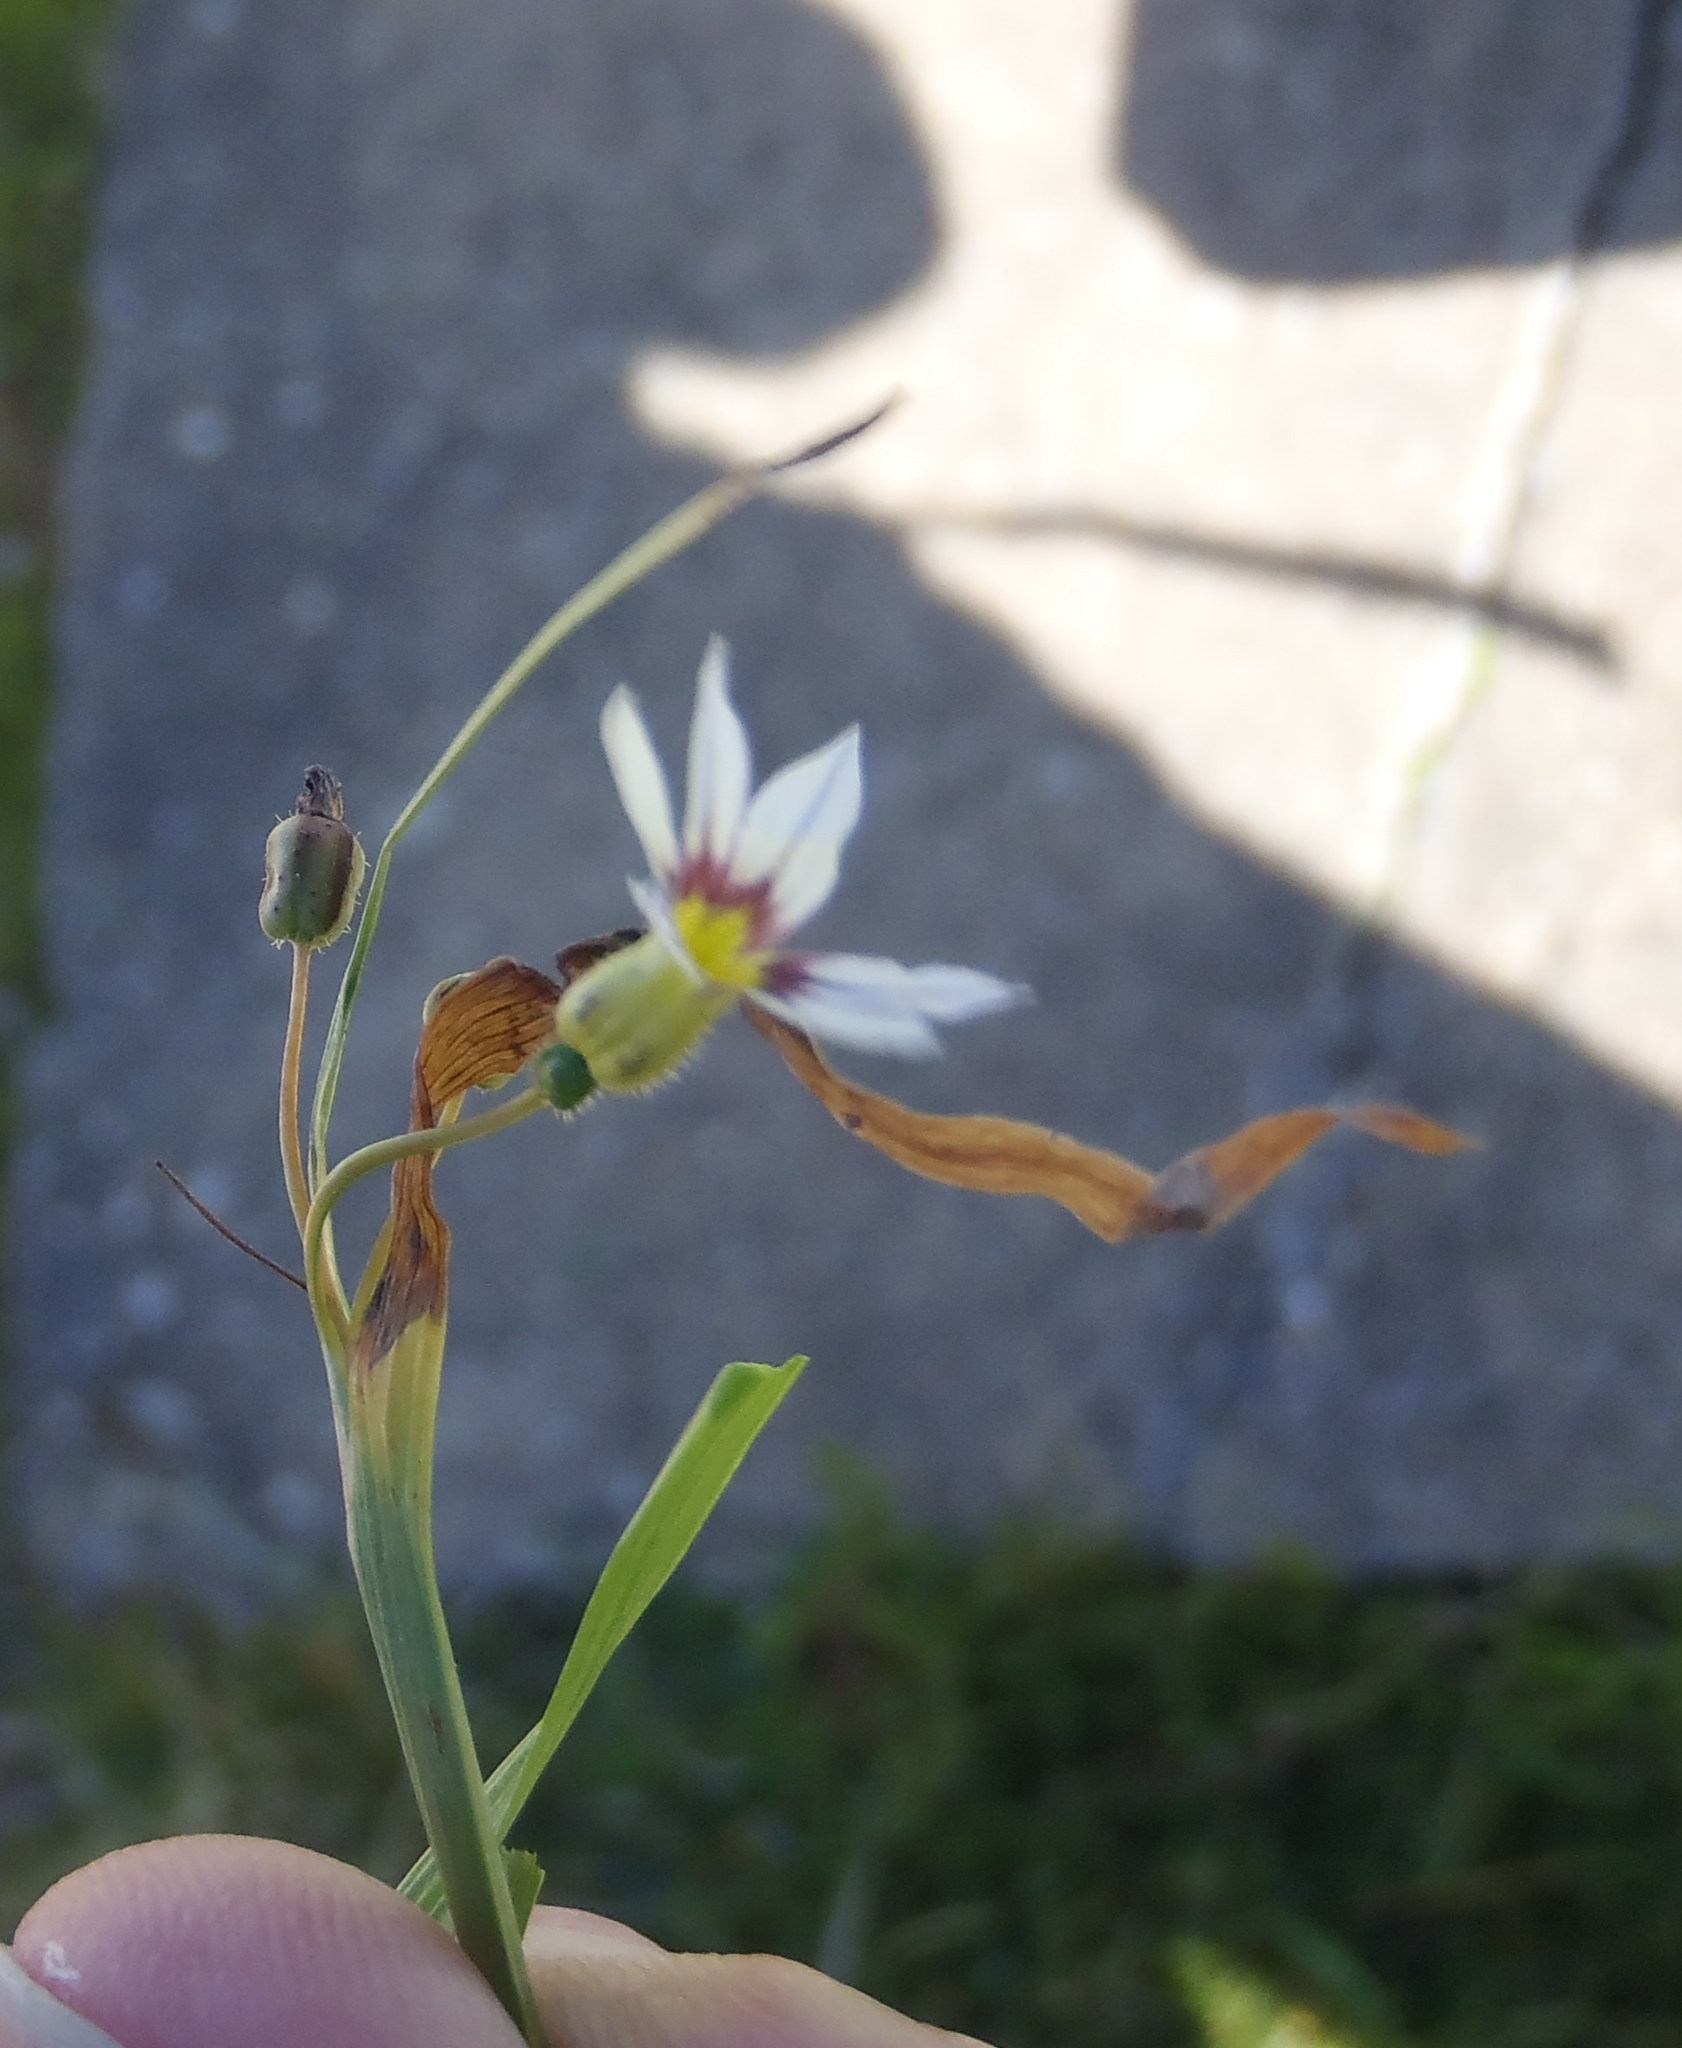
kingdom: Plantae
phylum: Tracheophyta
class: Liliopsida
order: Asparagales
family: Iridaceae
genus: Sisyrinchium
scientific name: Sisyrinchium micranthum
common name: Bermuda pigroot
